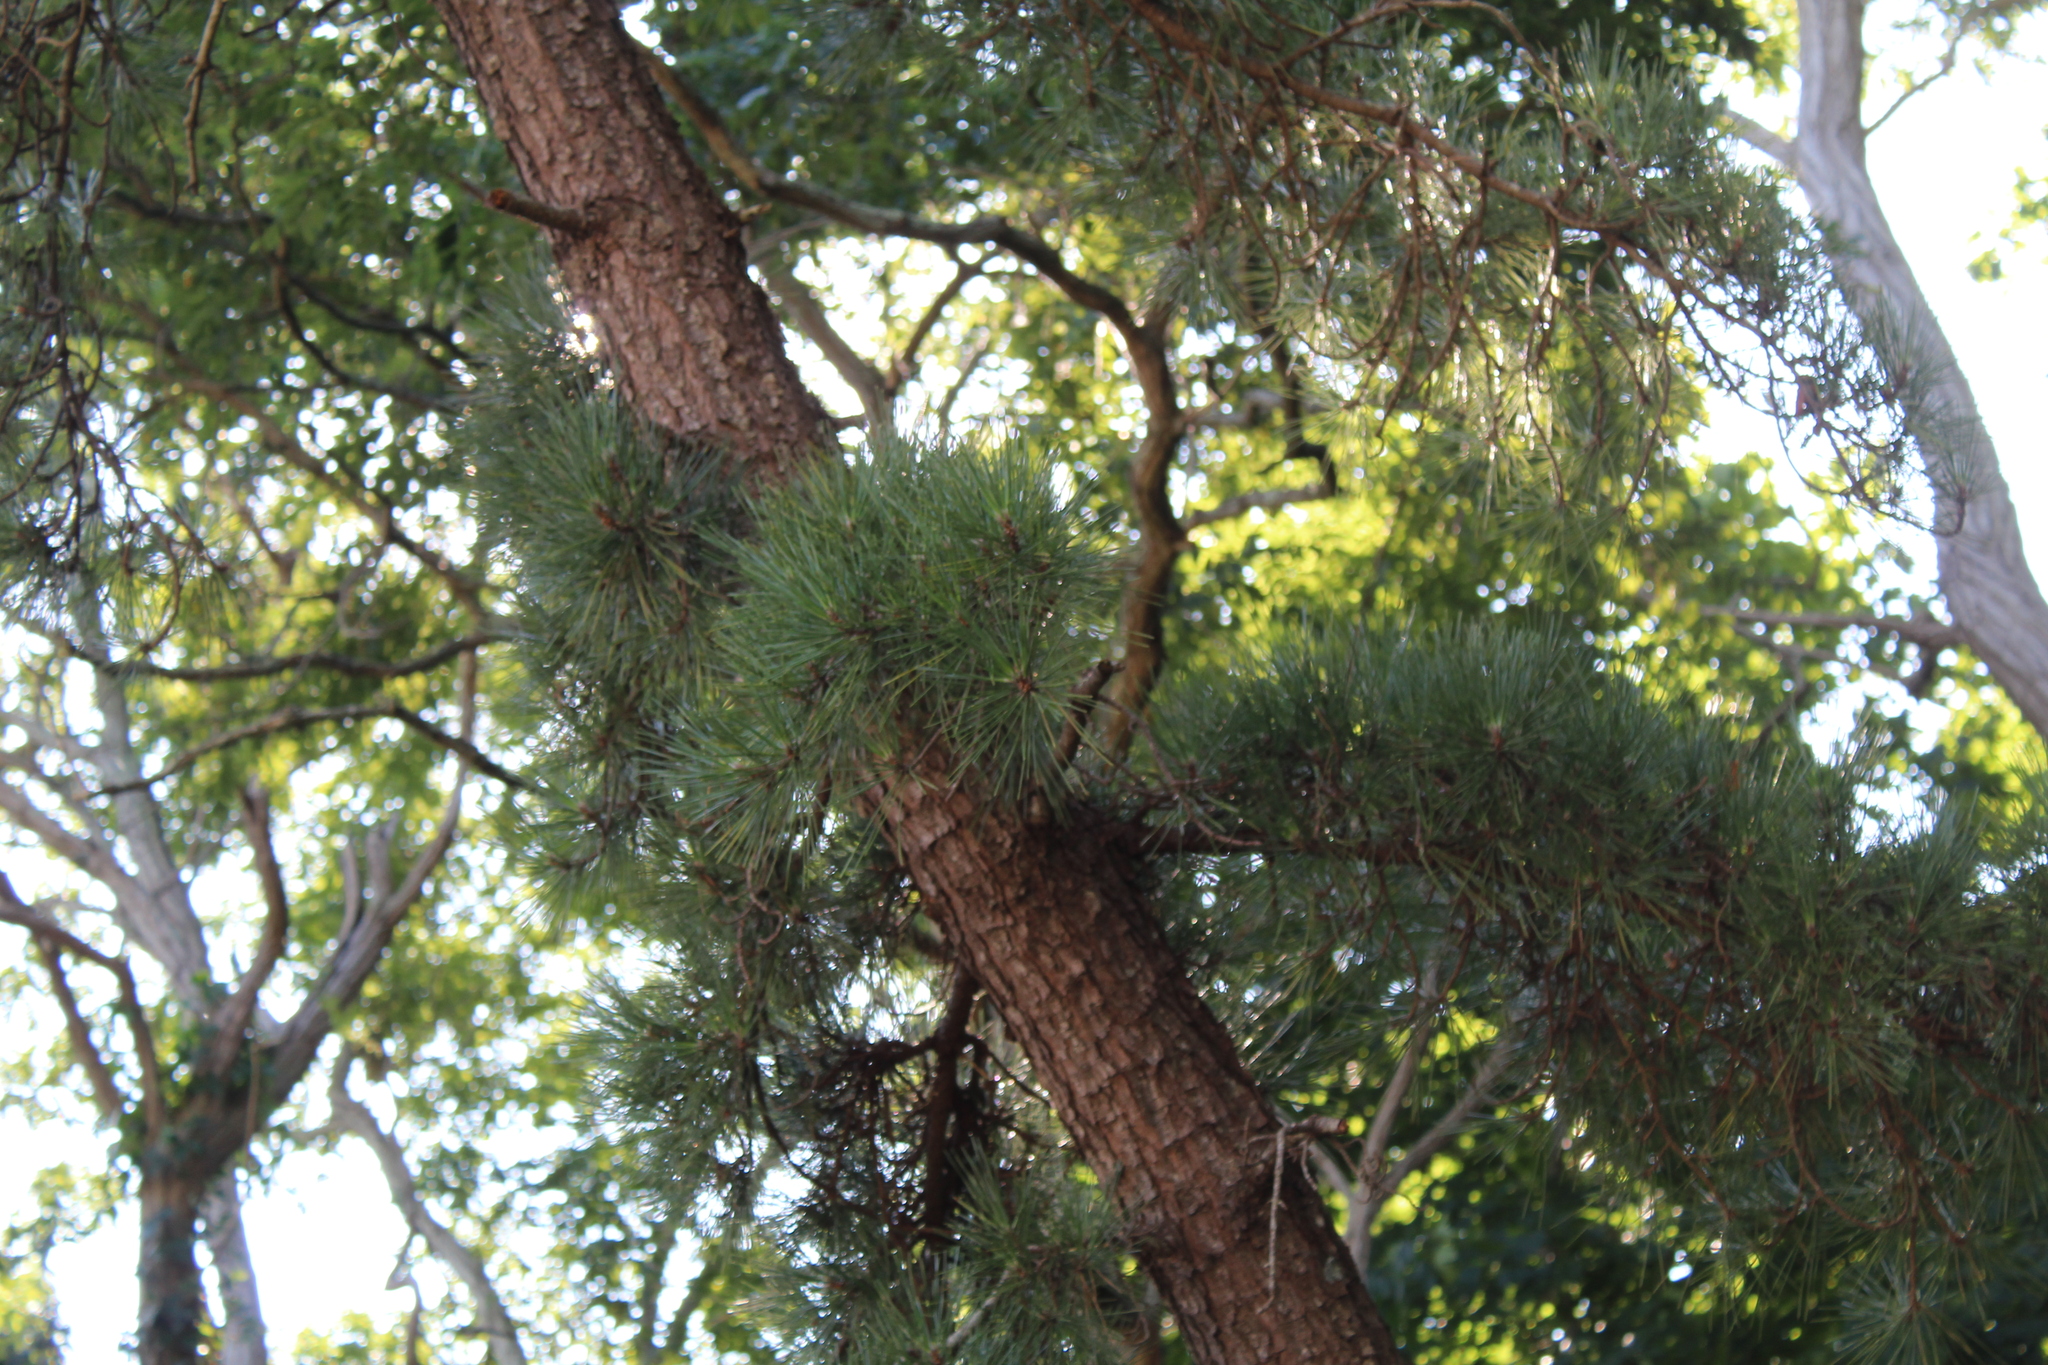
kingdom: Plantae
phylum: Tracheophyta
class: Pinopsida
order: Pinales
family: Pinaceae
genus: Pinus
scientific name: Pinus rigida
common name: Pitch pine
